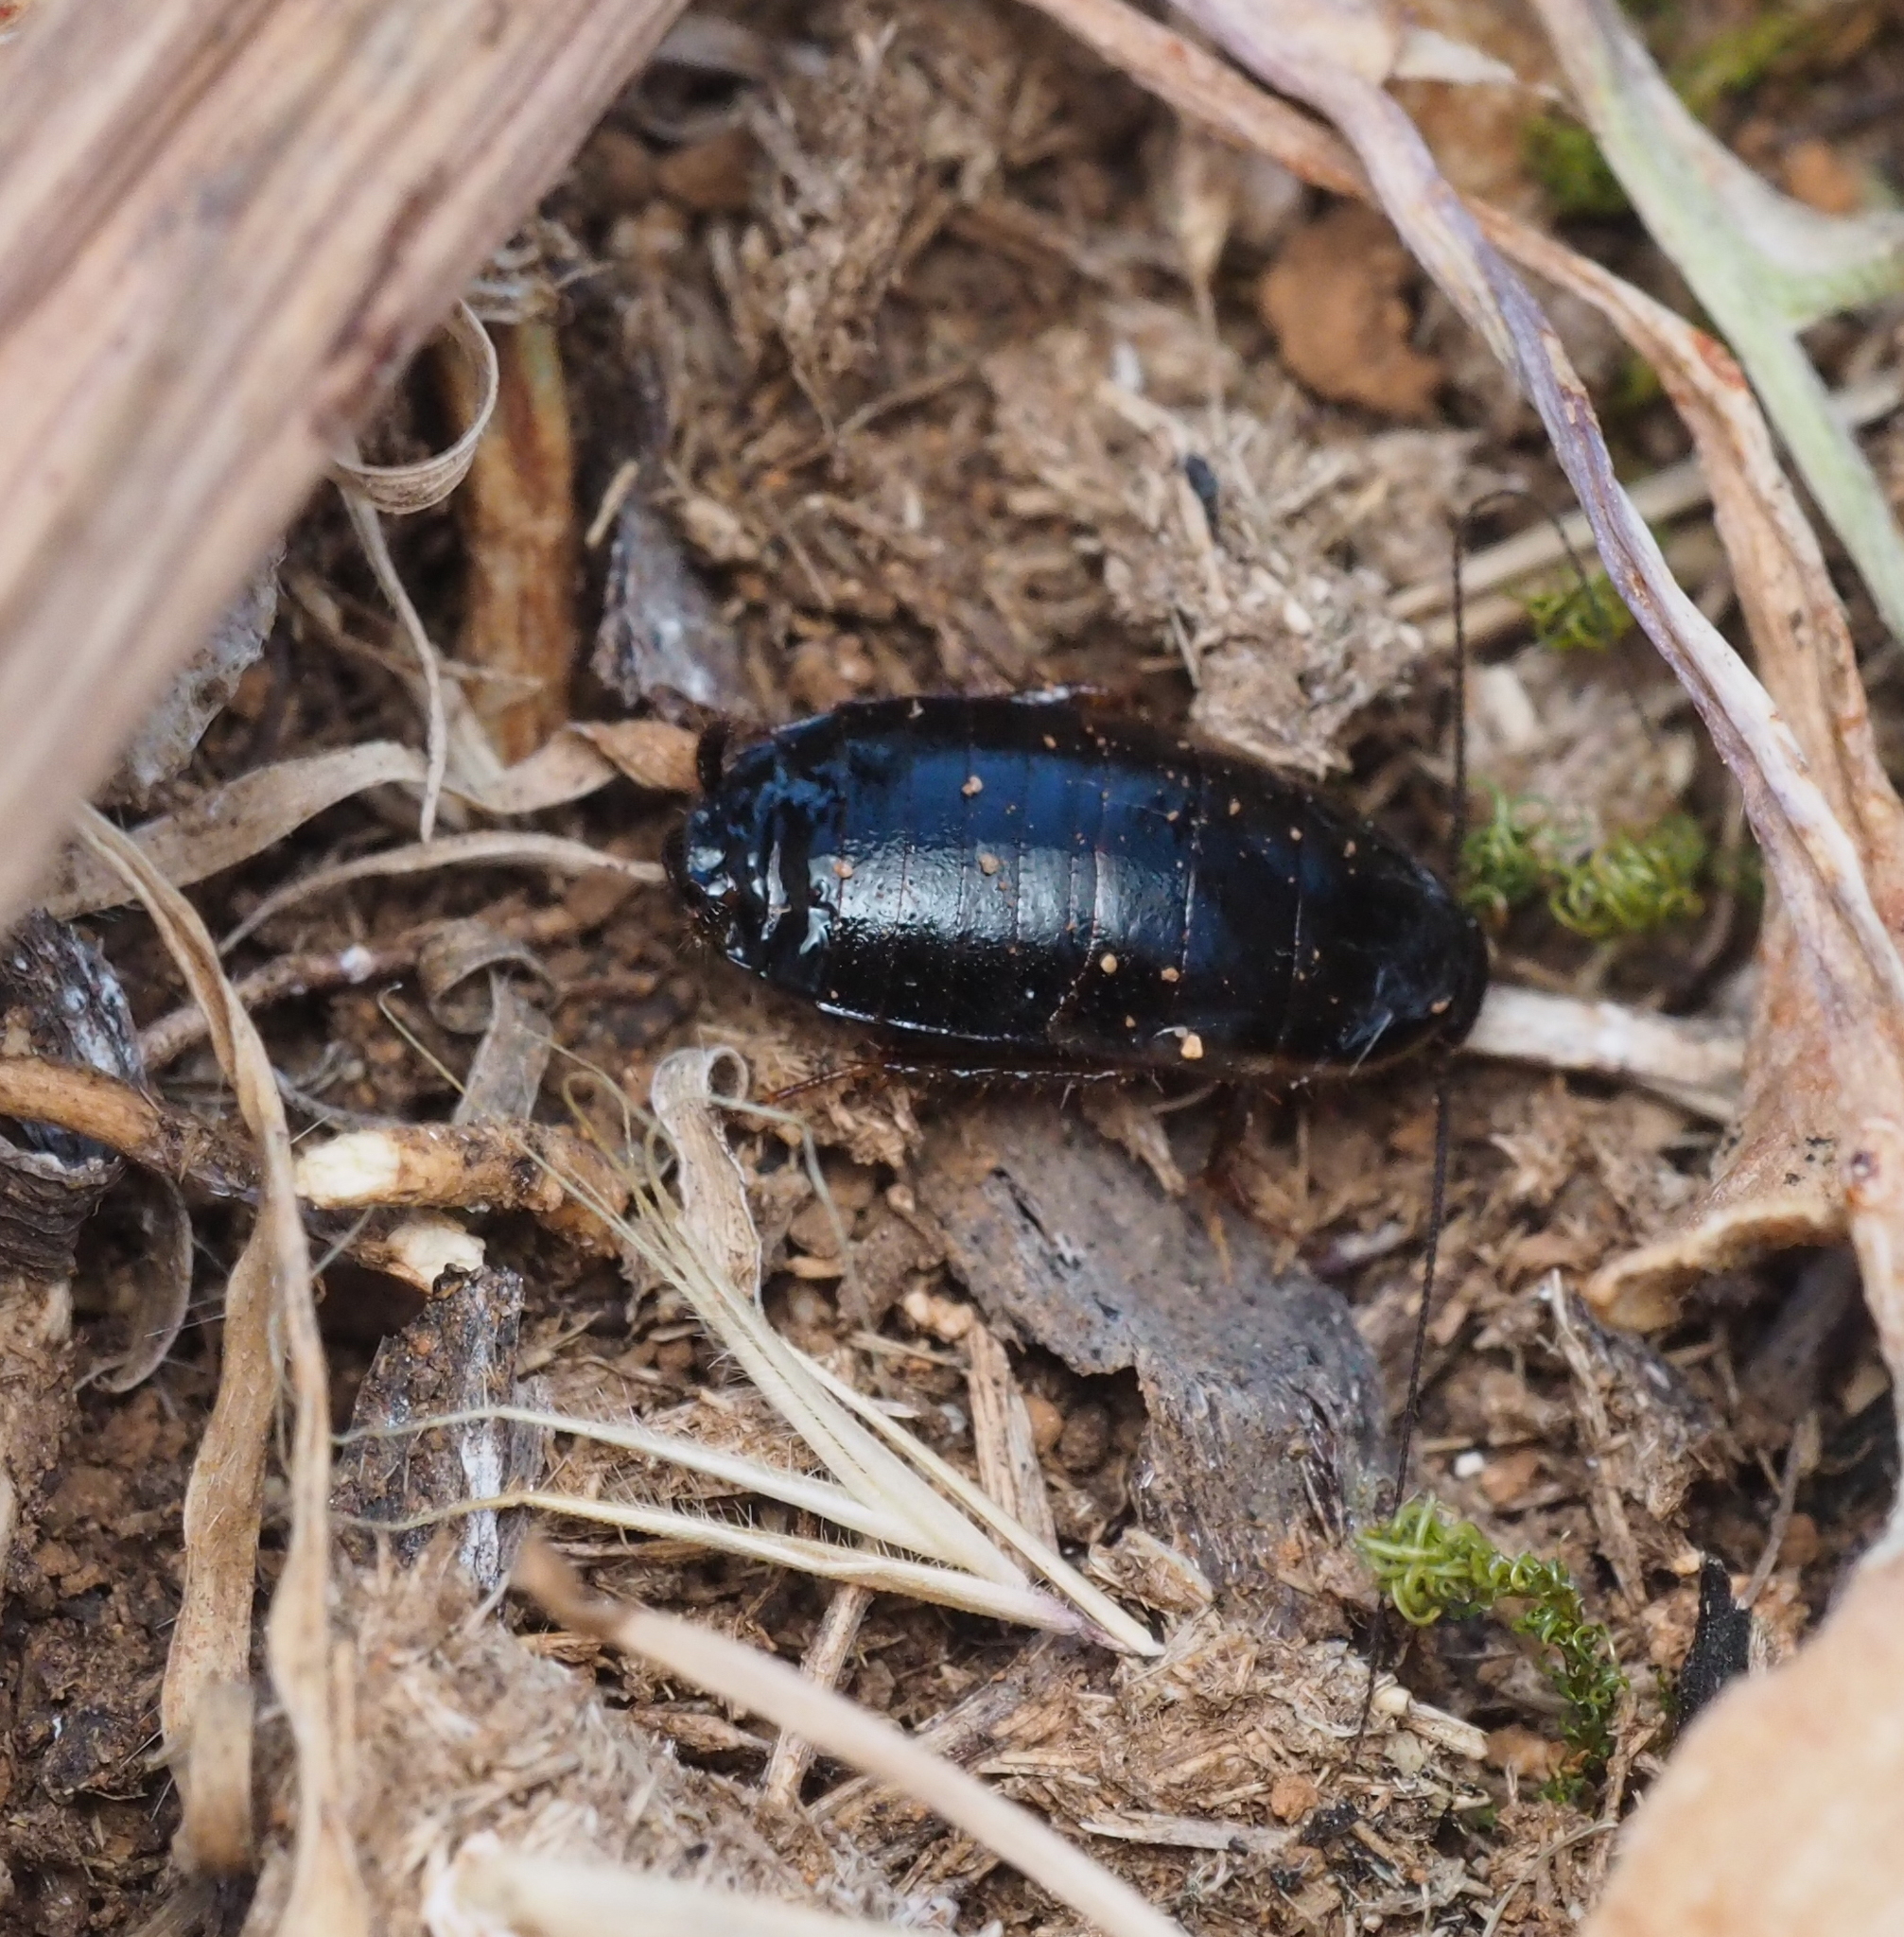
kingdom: Animalia
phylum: Arthropoda
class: Insecta
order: Blattodea
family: Ectobiidae
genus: Loboptera
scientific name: Loboptera canariensis
